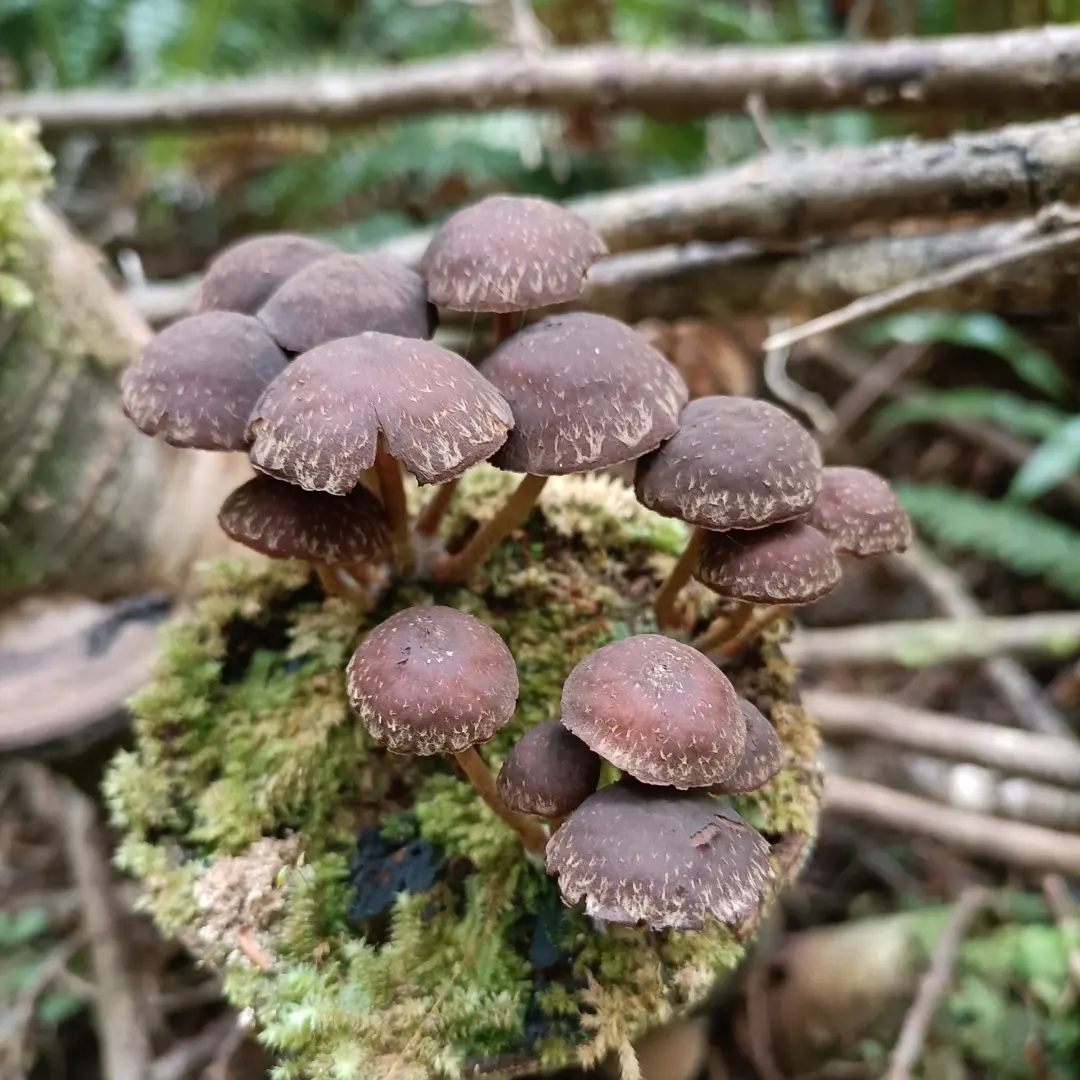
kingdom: Fungi
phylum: Basidiomycota
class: Agaricomycetes
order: Agaricales
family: Strophariaceae
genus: Hypholoma
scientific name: Hypholoma brunneum
